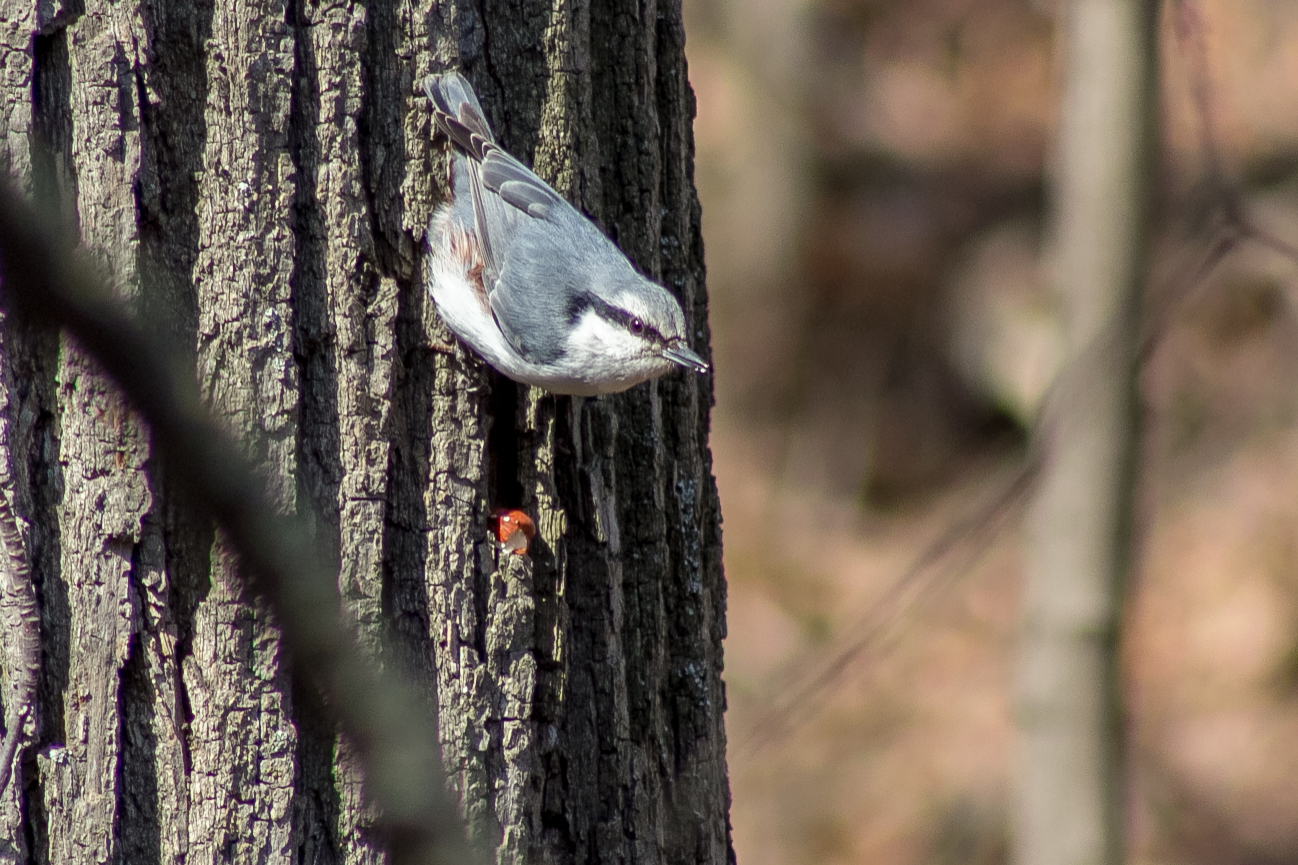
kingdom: Animalia
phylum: Chordata
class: Aves
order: Passeriformes
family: Sittidae
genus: Sitta
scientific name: Sitta europaea
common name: Eurasian nuthatch
